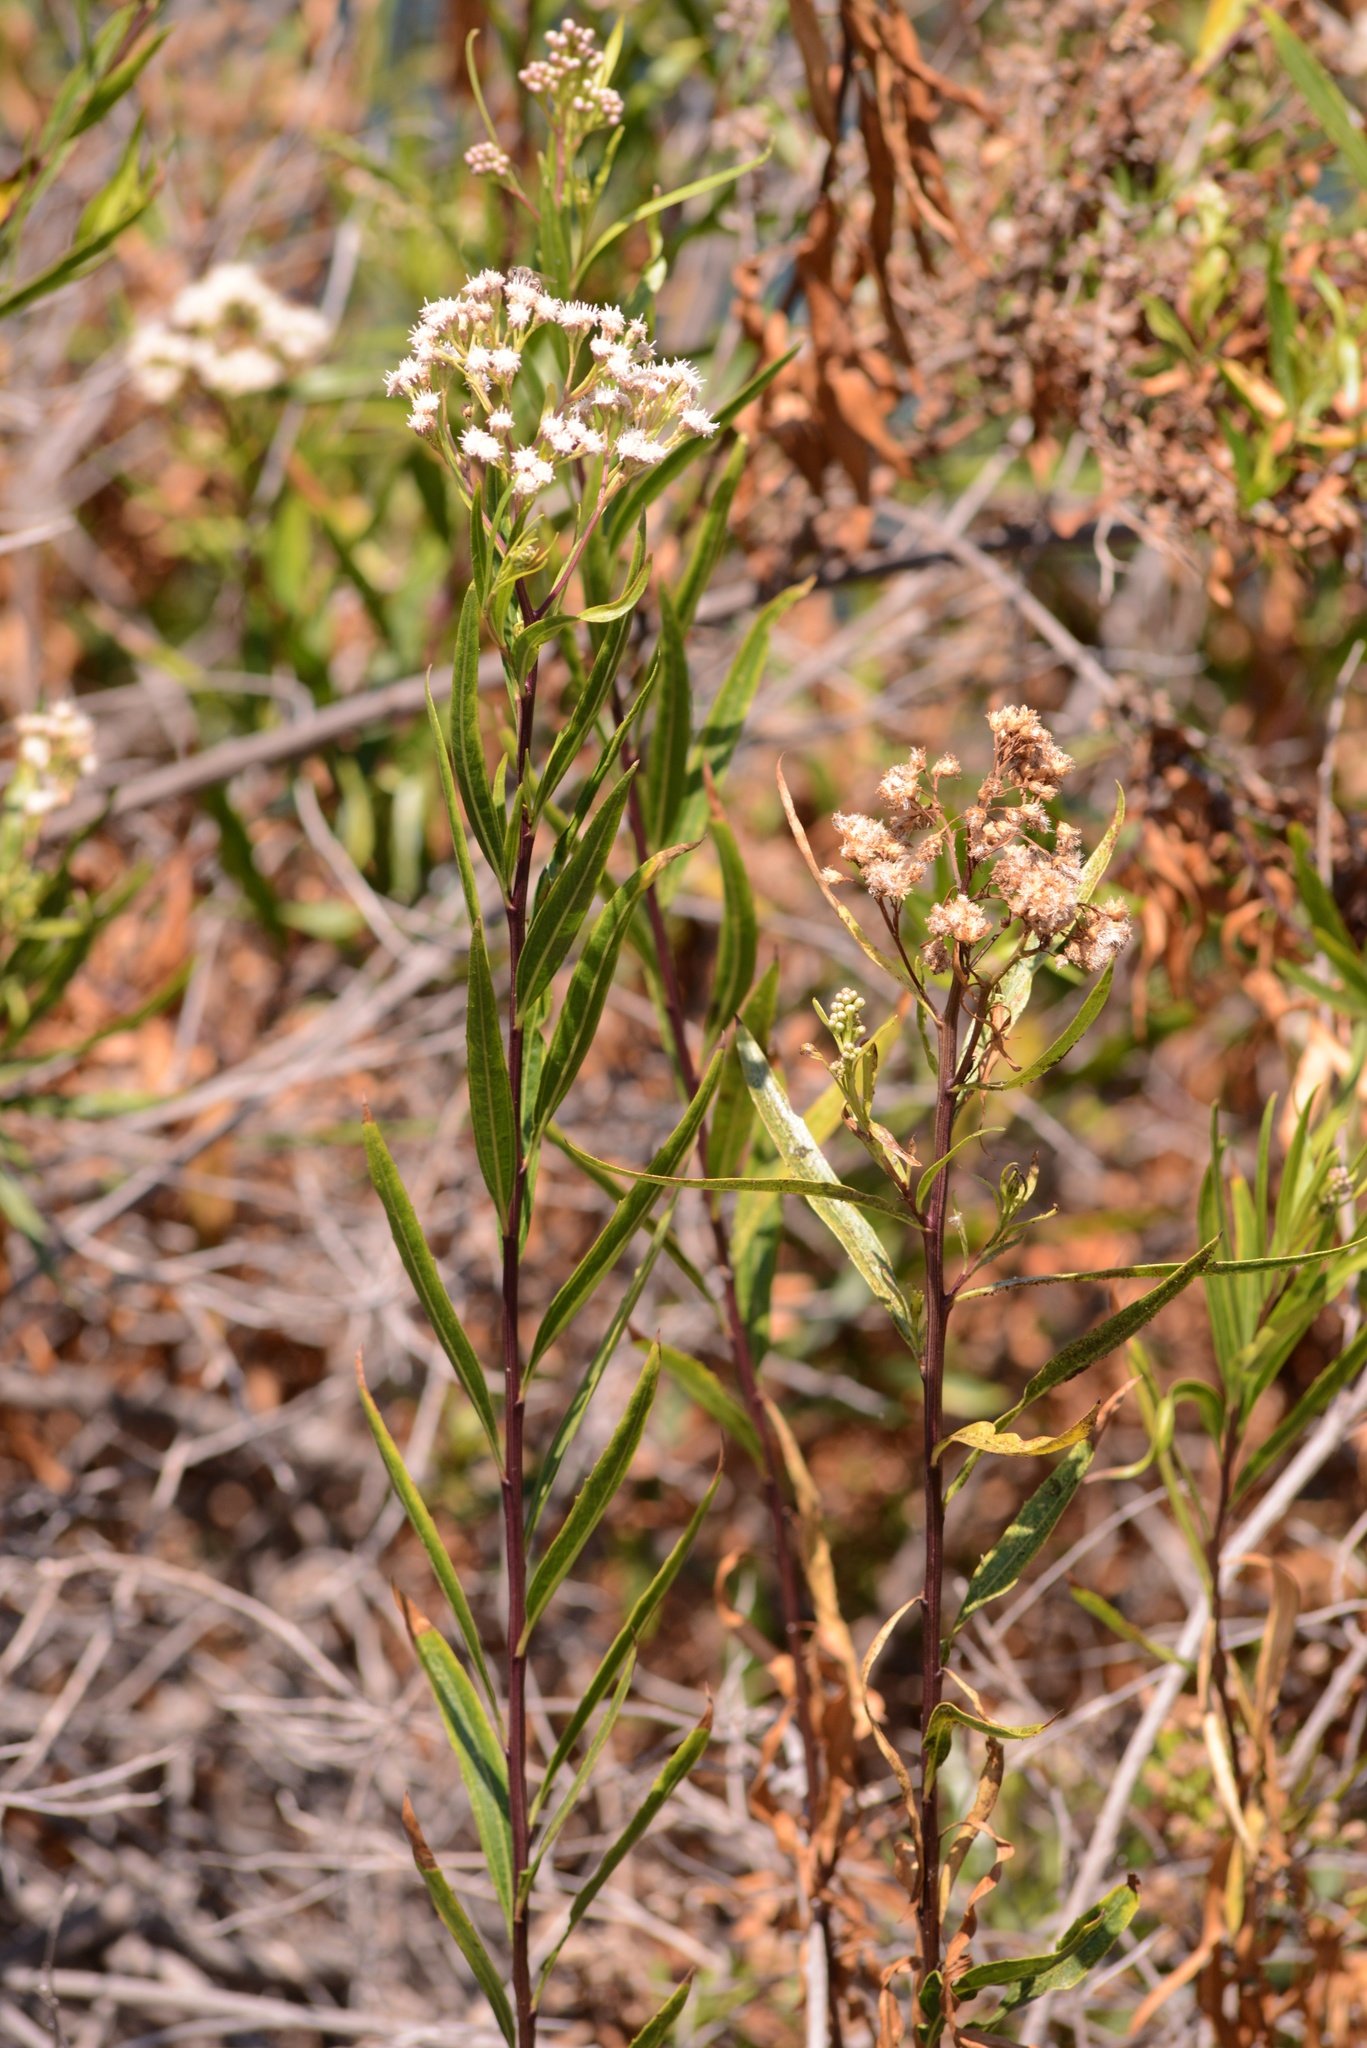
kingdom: Plantae
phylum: Tracheophyta
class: Magnoliopsida
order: Asterales
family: Asteraceae
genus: Baccharis
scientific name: Baccharis salicifolia
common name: Sticky baccharis
